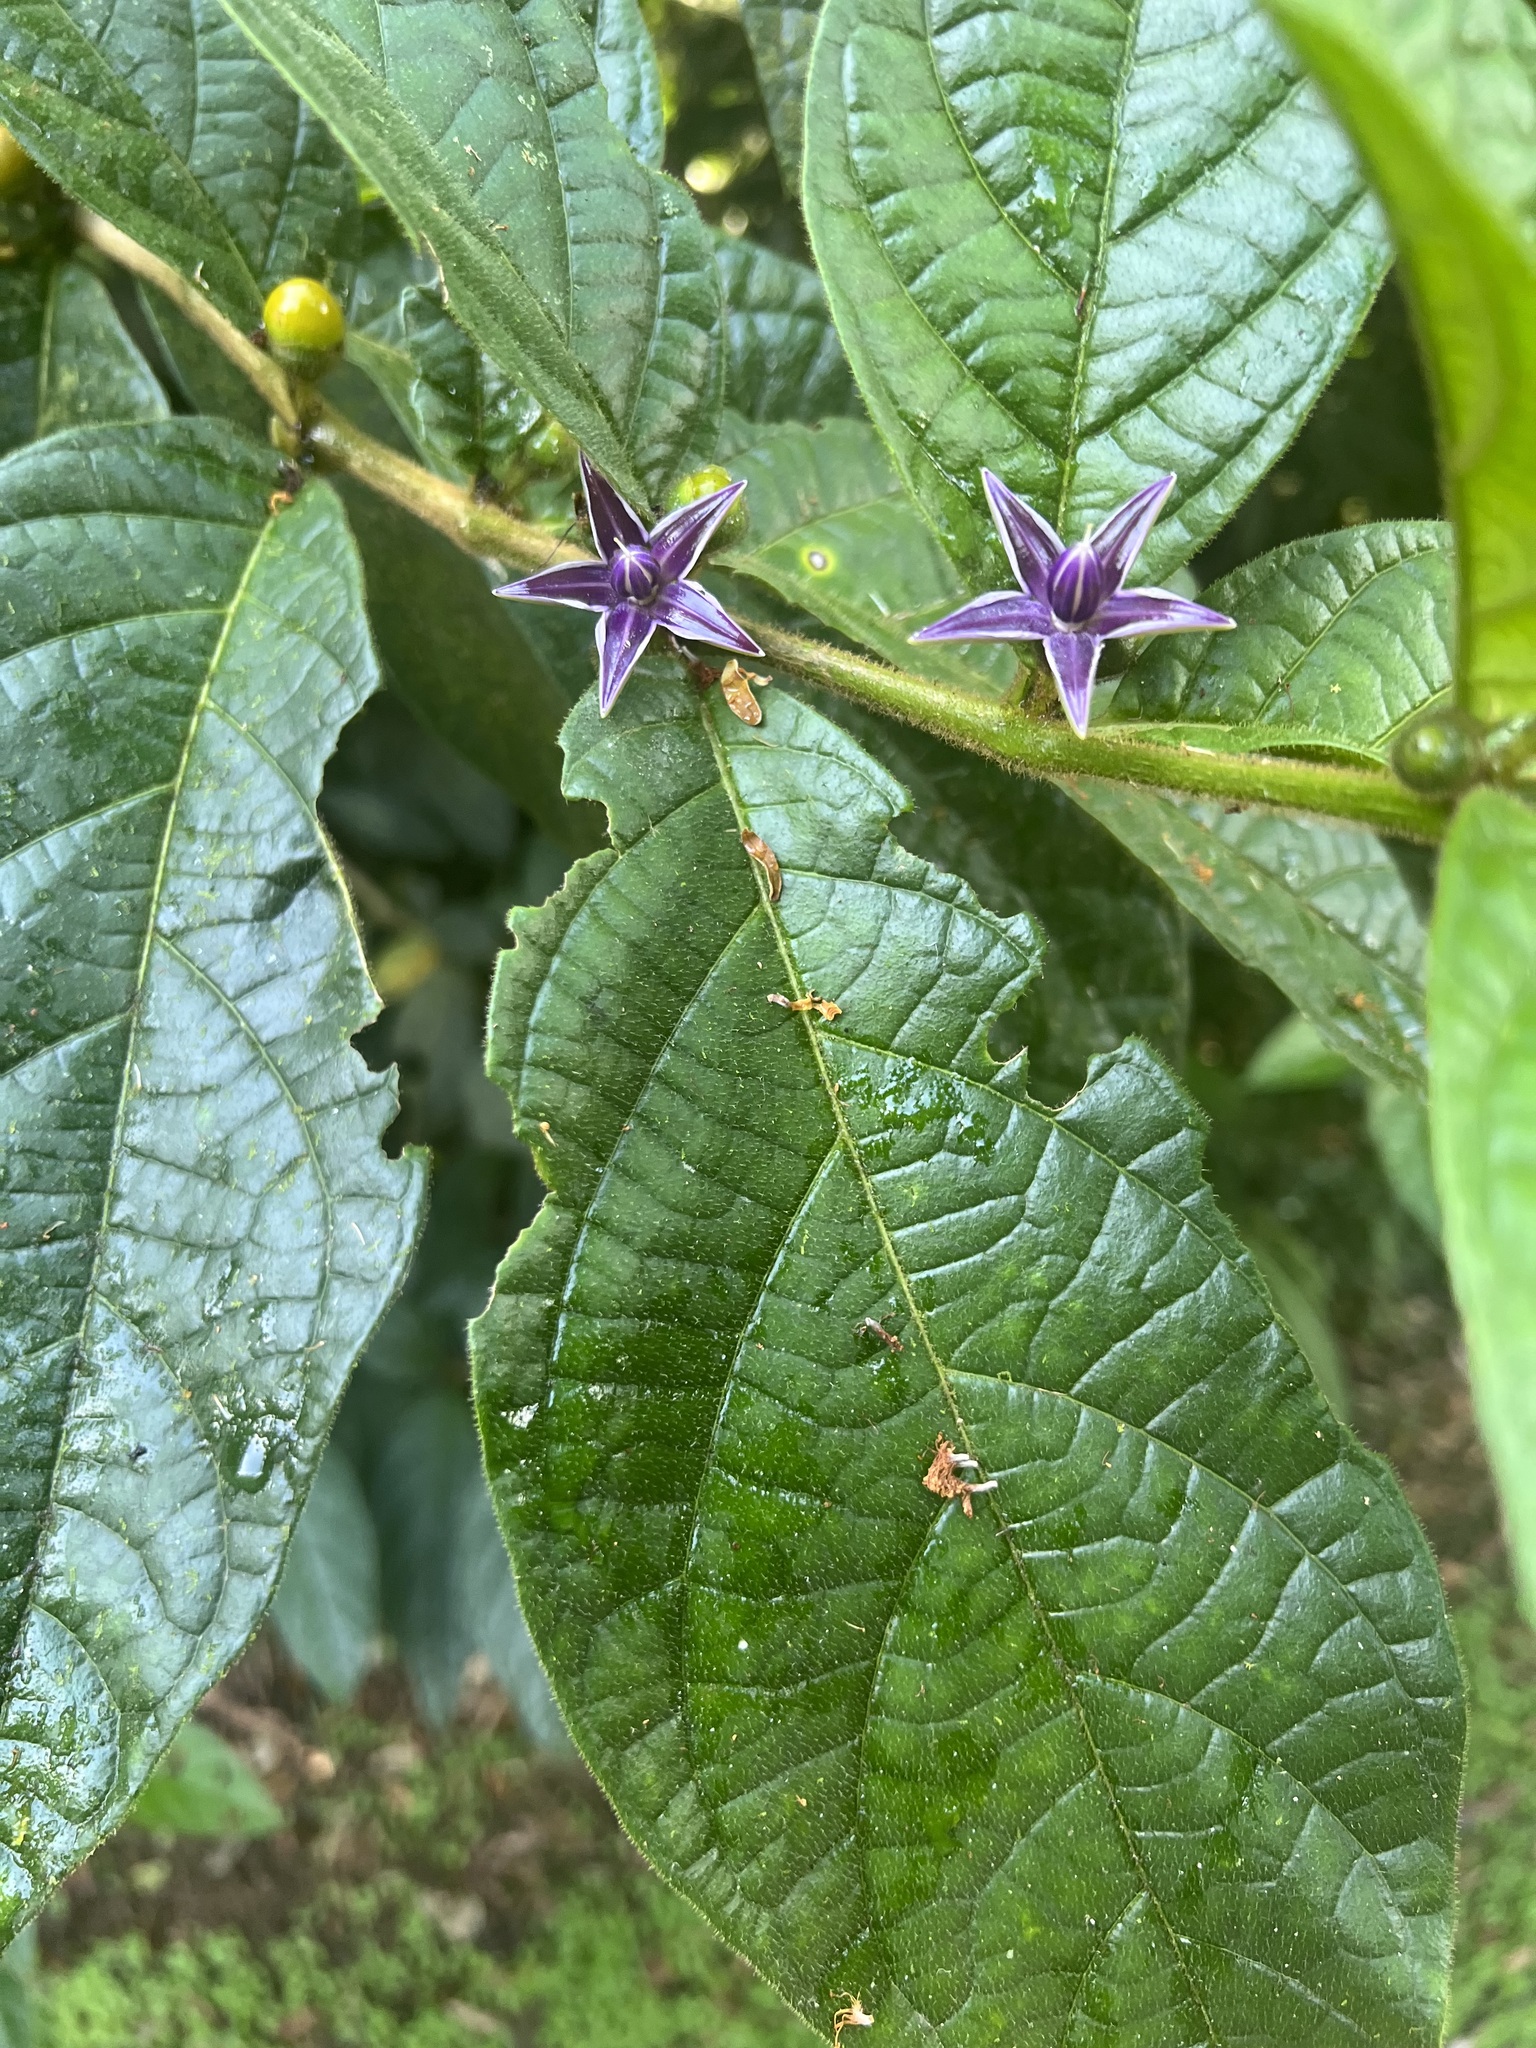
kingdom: Plantae
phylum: Tracheophyta
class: Magnoliopsida
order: Solanales
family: Solanaceae
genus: Lycianthes
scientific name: Lycianthes sanctaeclarae
